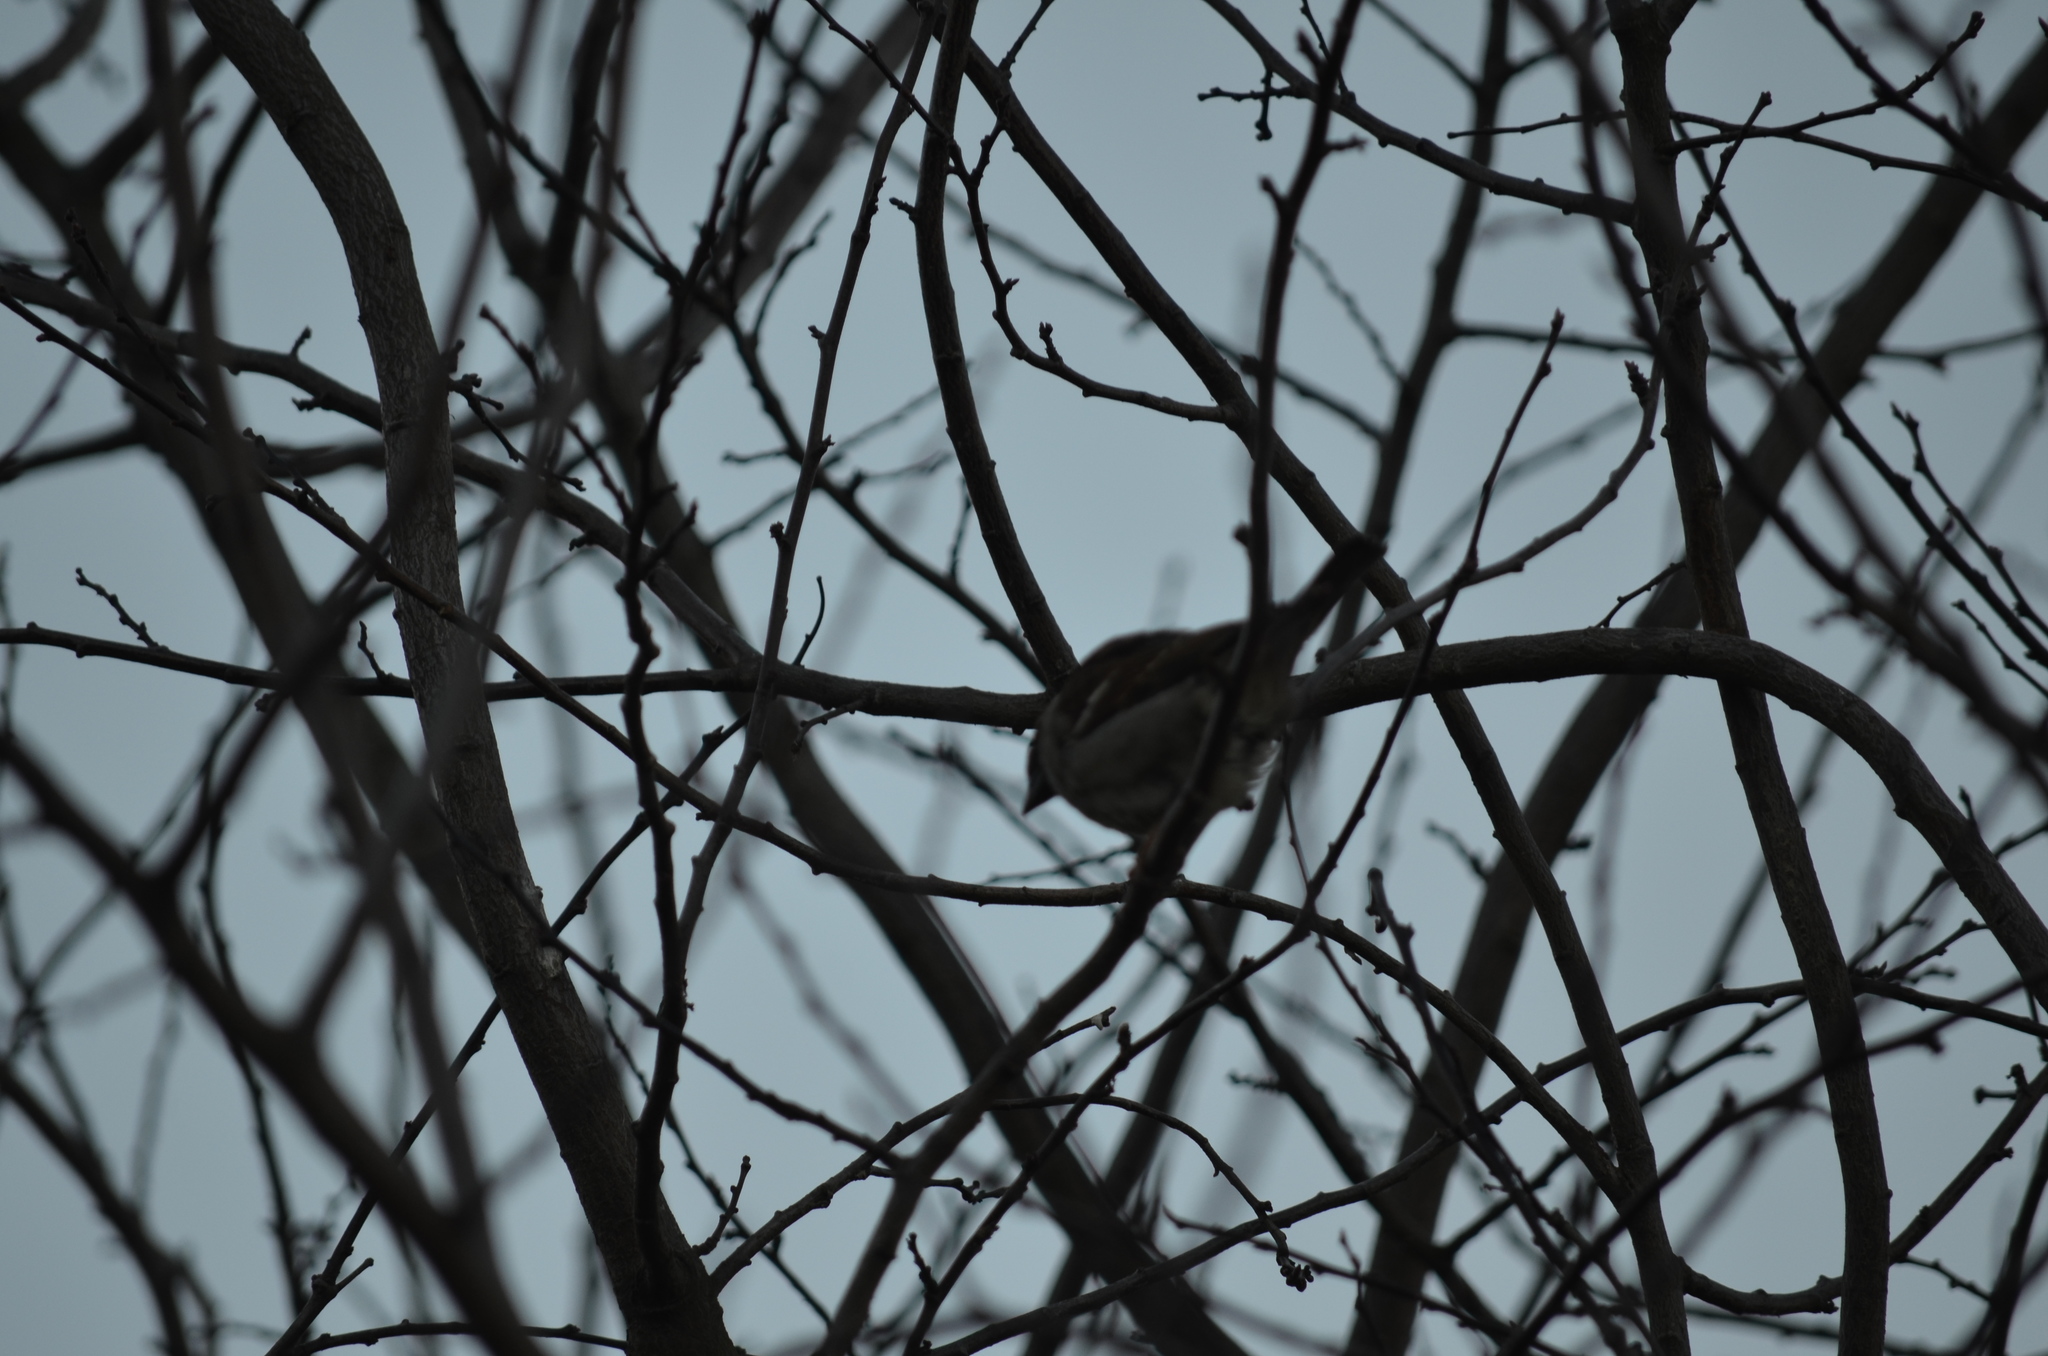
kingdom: Animalia
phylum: Chordata
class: Aves
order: Passeriformes
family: Passeridae
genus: Passer
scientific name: Passer domesticus
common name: House sparrow
